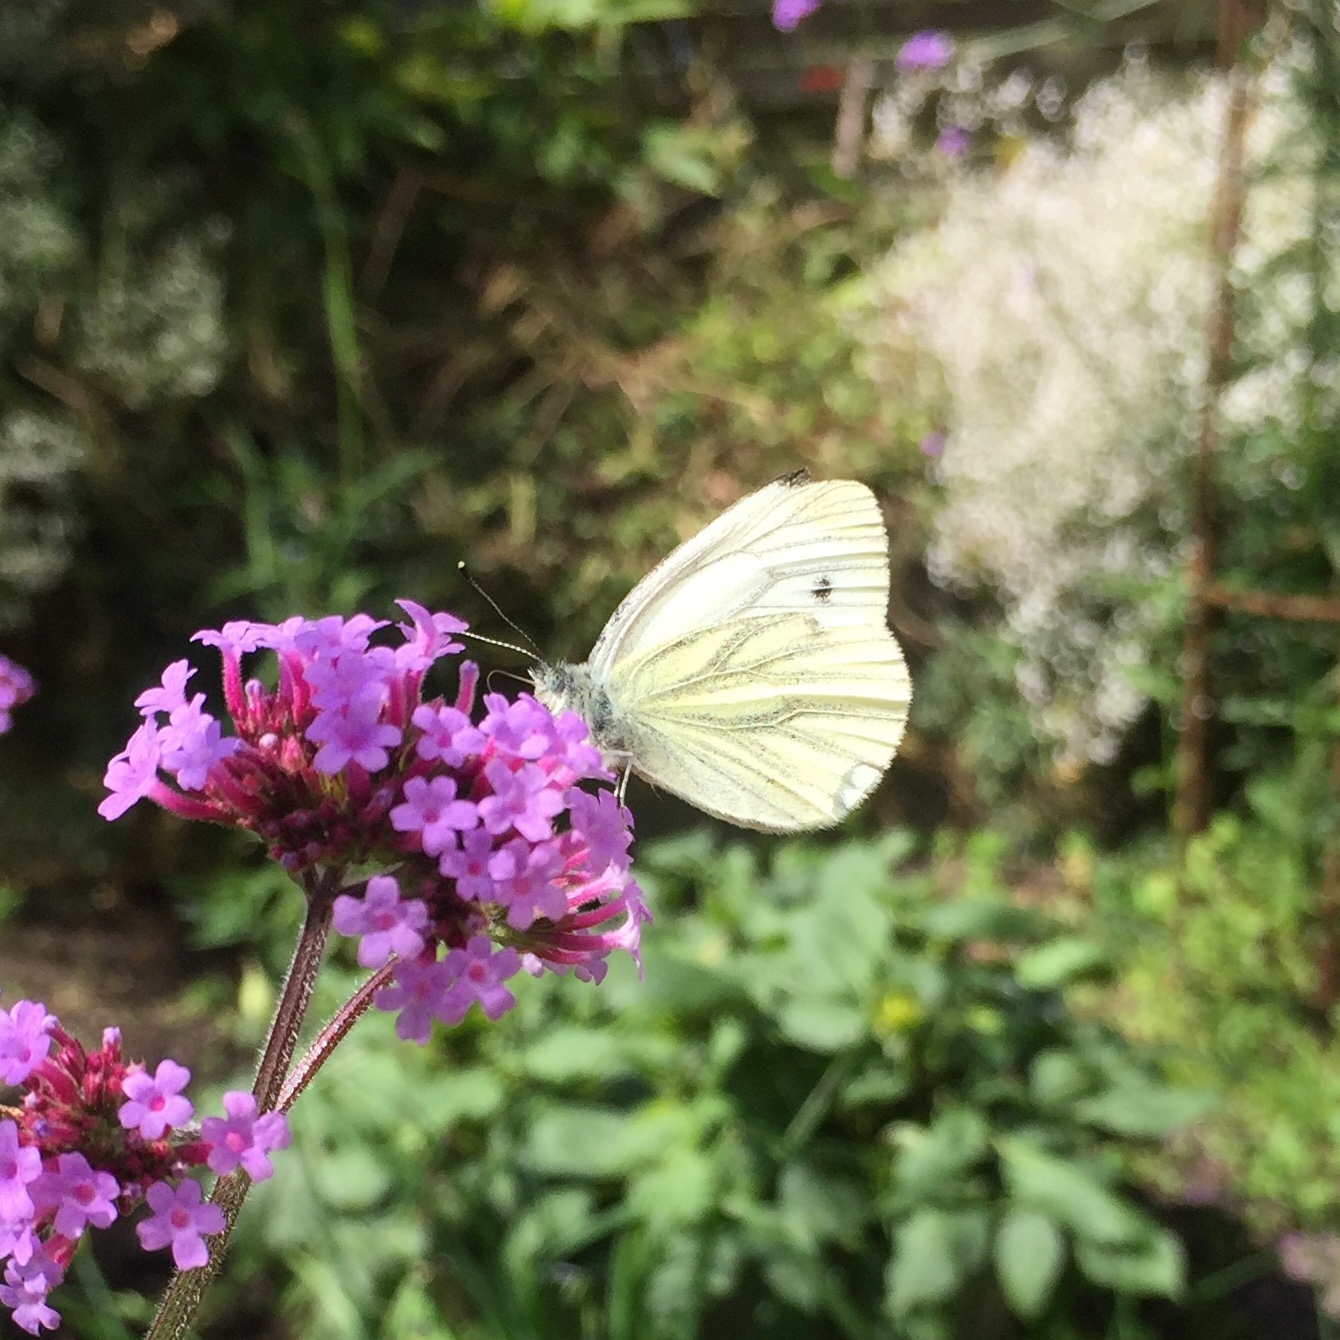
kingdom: Animalia
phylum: Arthropoda
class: Insecta
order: Lepidoptera
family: Pieridae
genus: Pieris
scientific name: Pieris napi
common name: Green-veined white
